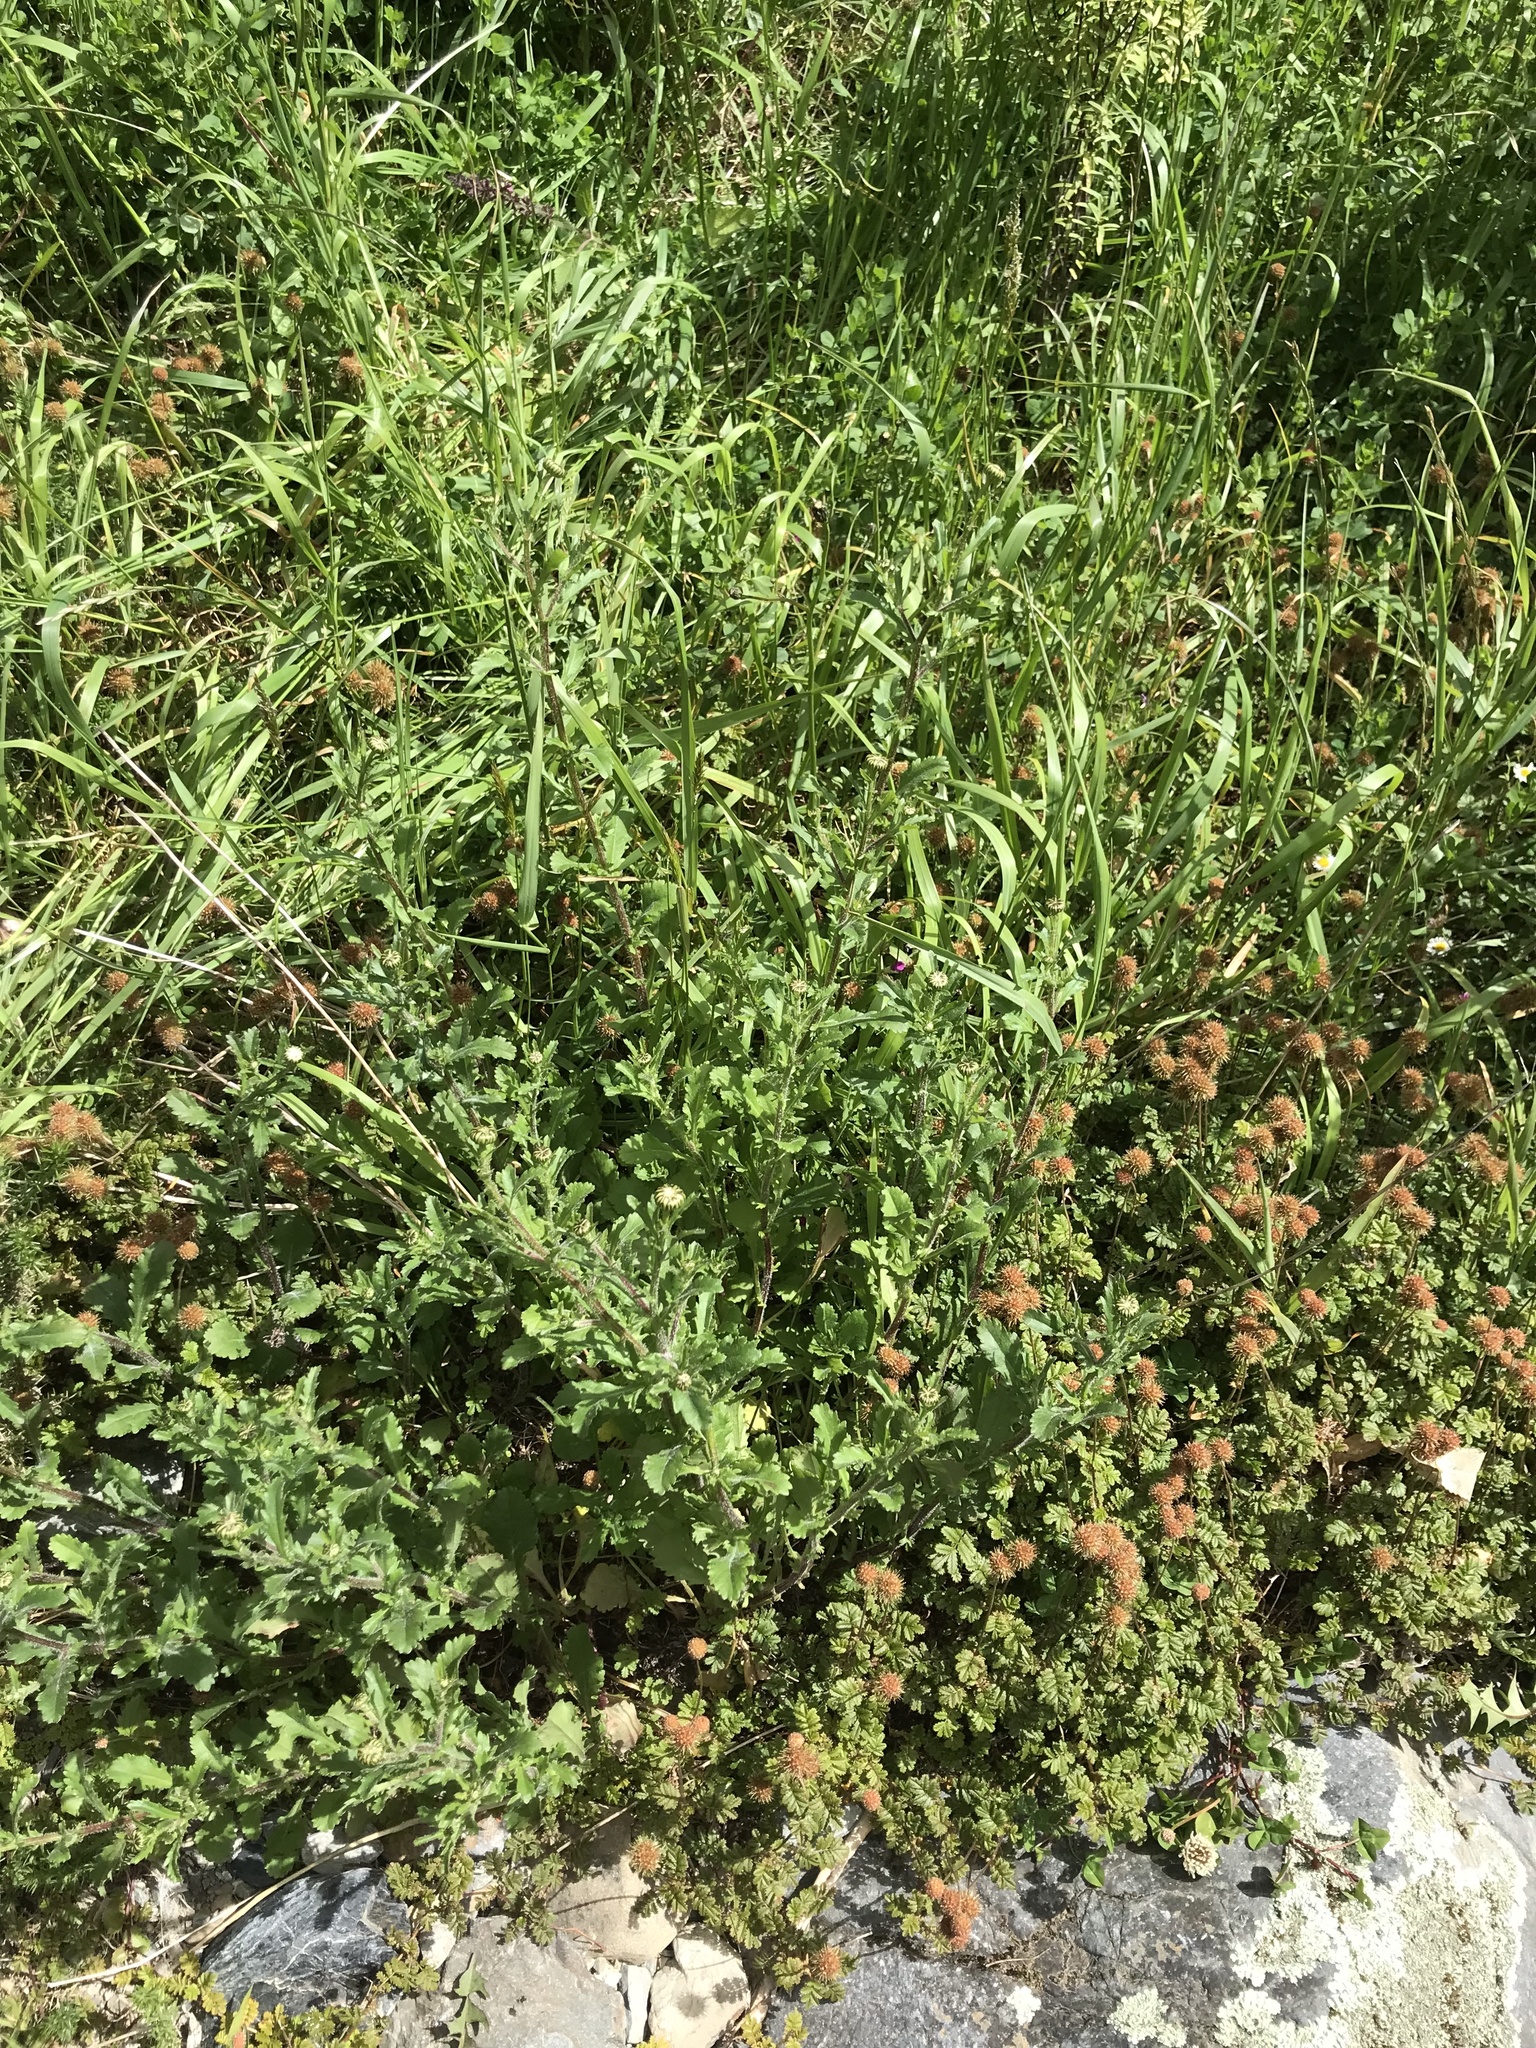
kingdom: Plantae
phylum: Tracheophyta
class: Magnoliopsida
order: Asterales
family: Asteraceae
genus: Centipeda
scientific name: Centipeda cunninghamii
